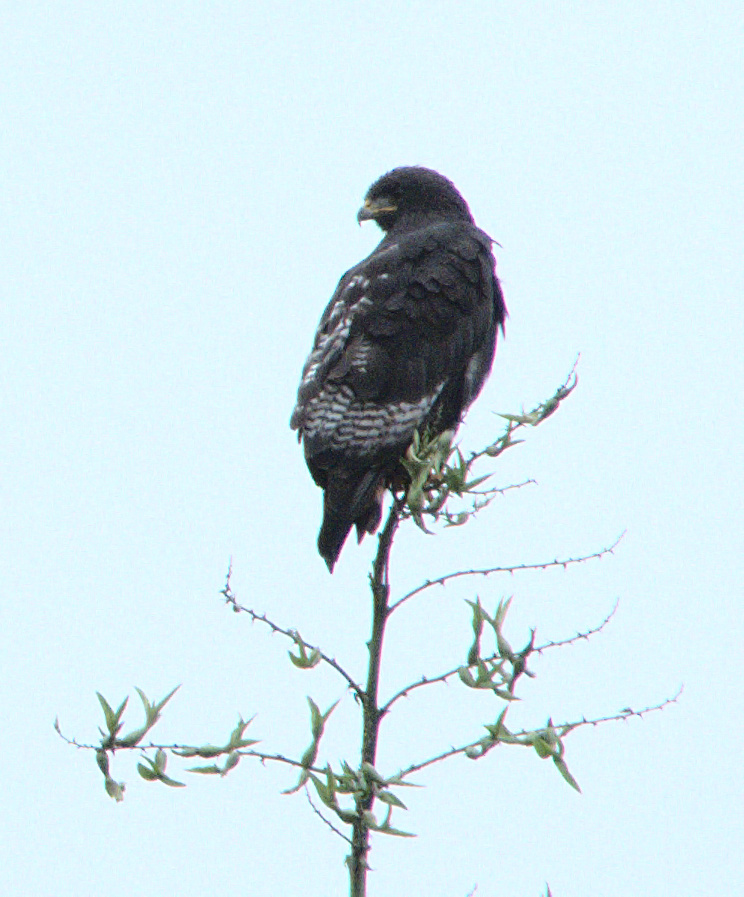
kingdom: Animalia
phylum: Chordata
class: Aves
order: Accipitriformes
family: Accipitridae
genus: Buteo
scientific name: Buteo augur
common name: Augur buzzard
